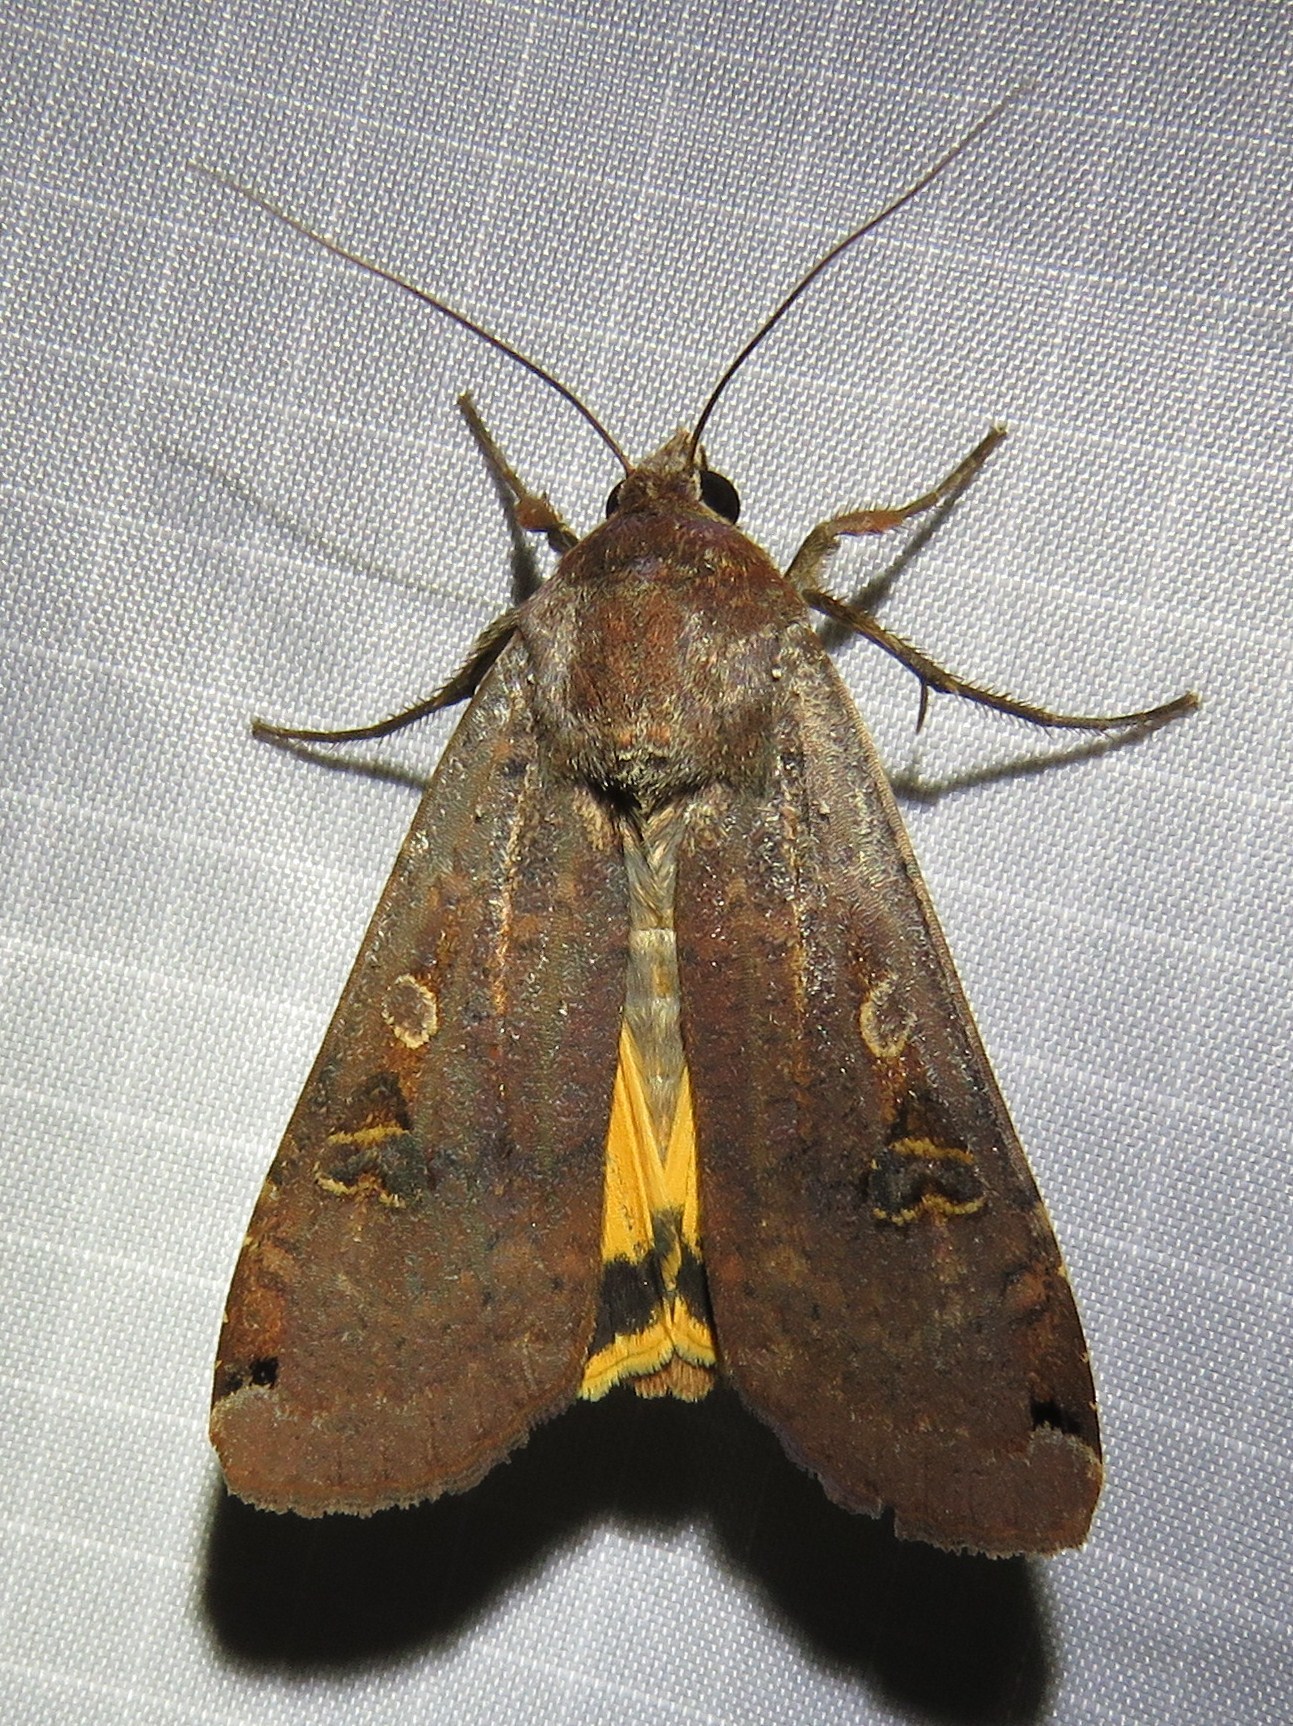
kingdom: Animalia
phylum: Arthropoda
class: Insecta
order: Lepidoptera
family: Noctuidae
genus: Noctua
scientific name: Noctua pronuba
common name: Large yellow underwing
